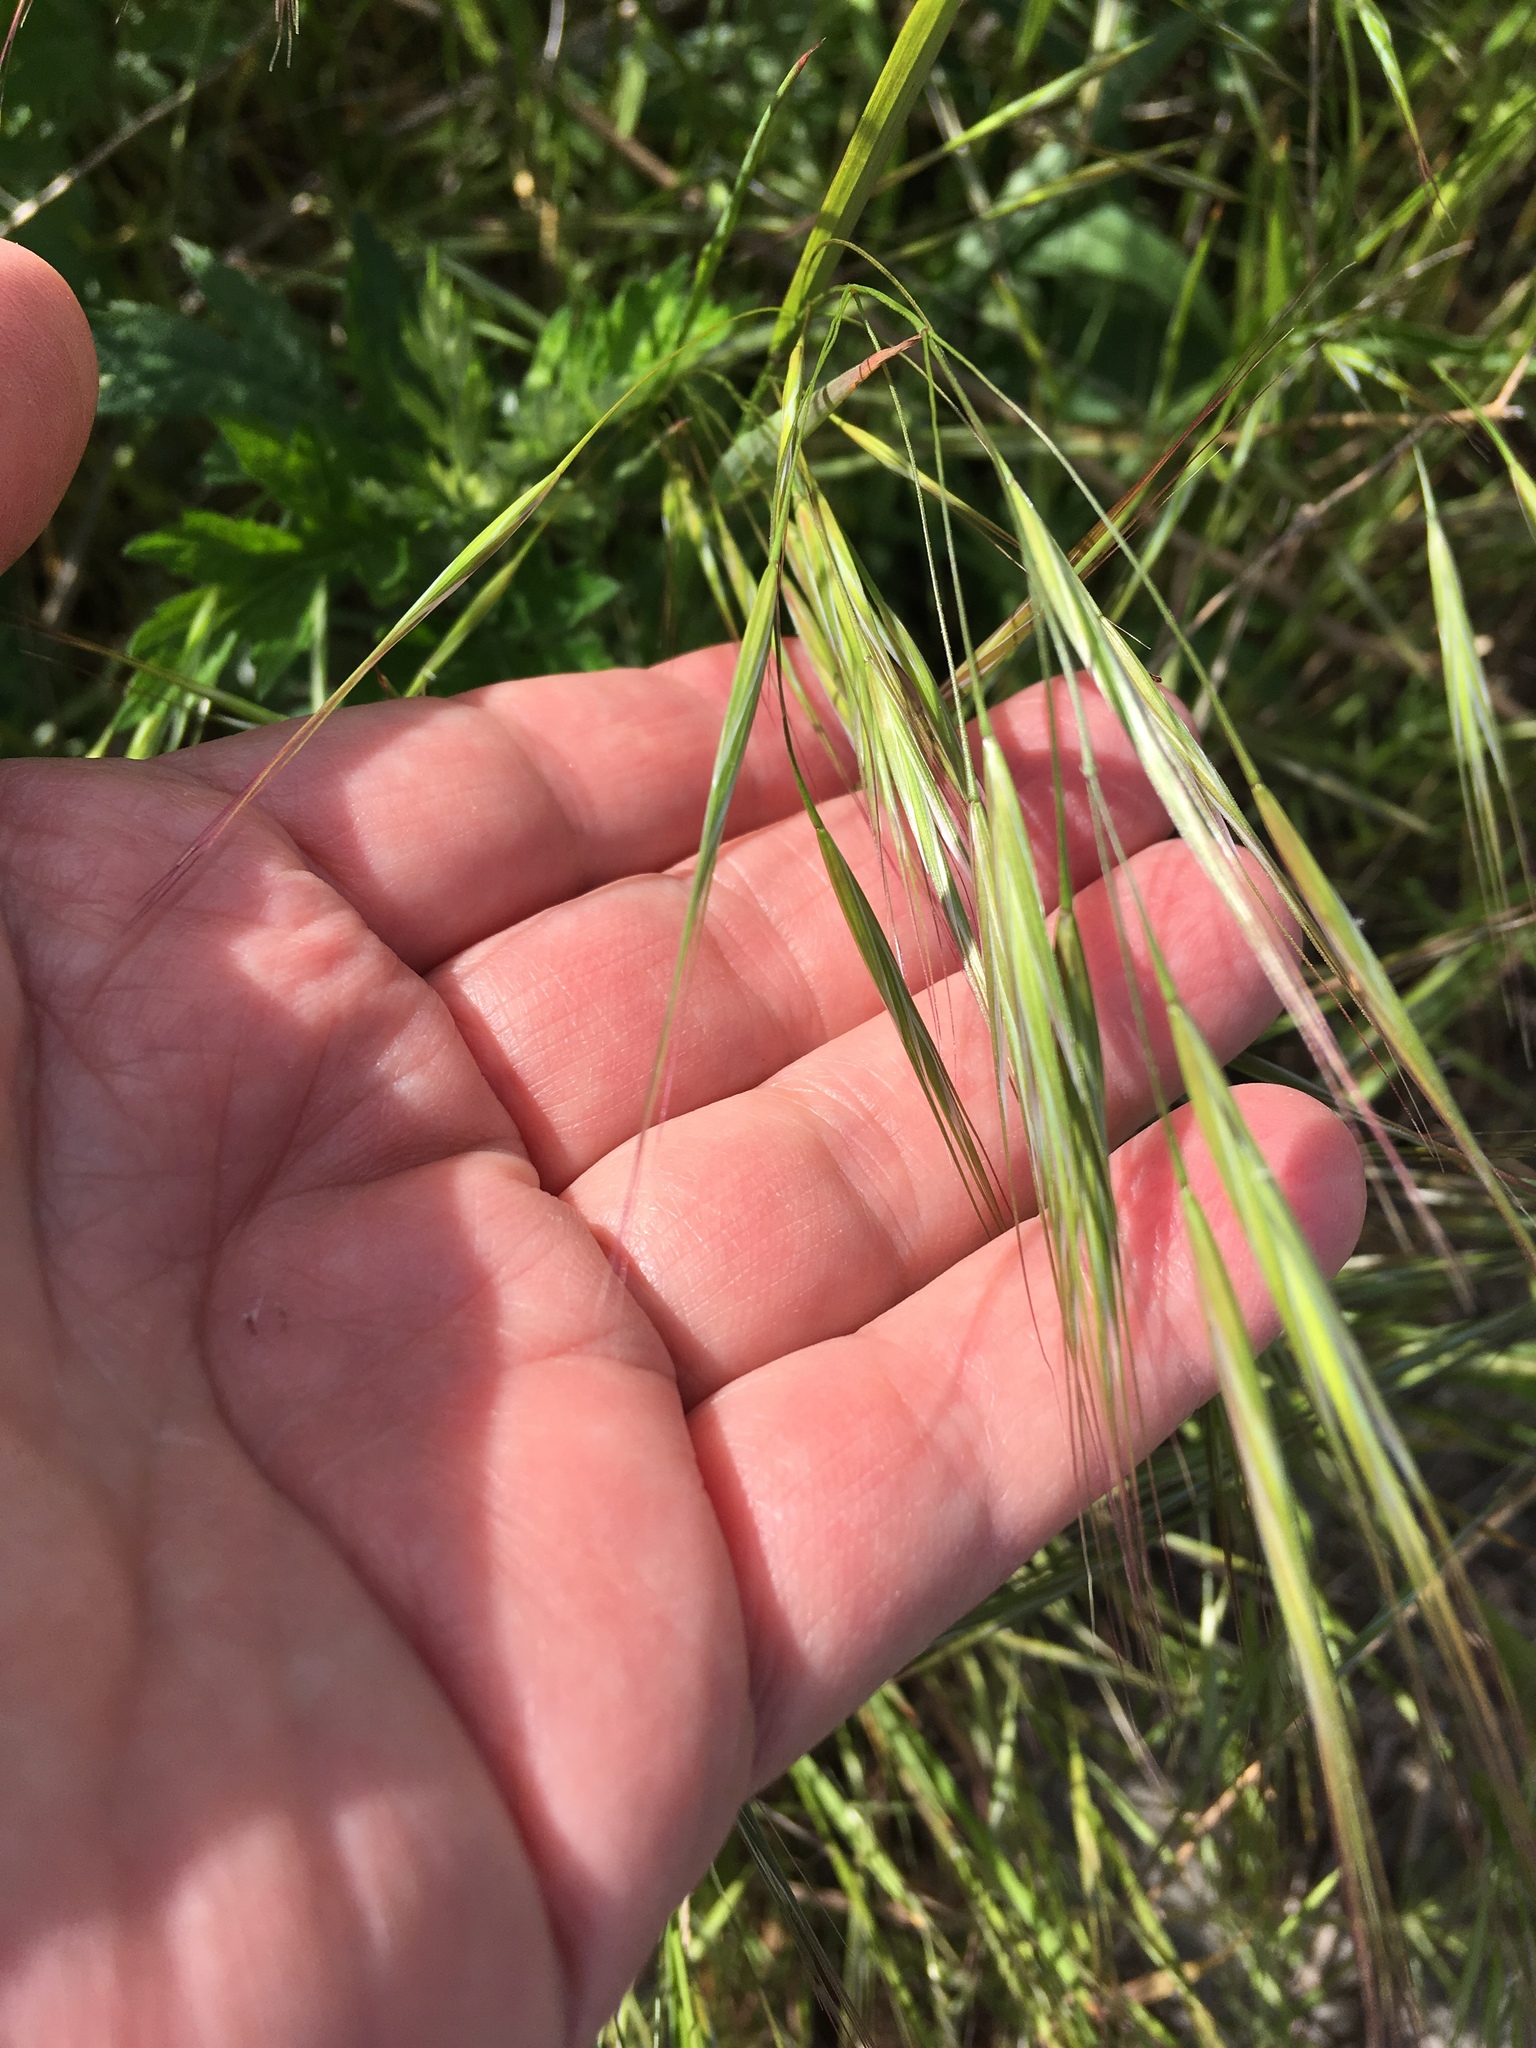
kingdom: Plantae
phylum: Tracheophyta
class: Liliopsida
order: Poales
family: Poaceae
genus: Bromus
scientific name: Bromus tectorum
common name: Cheatgrass
